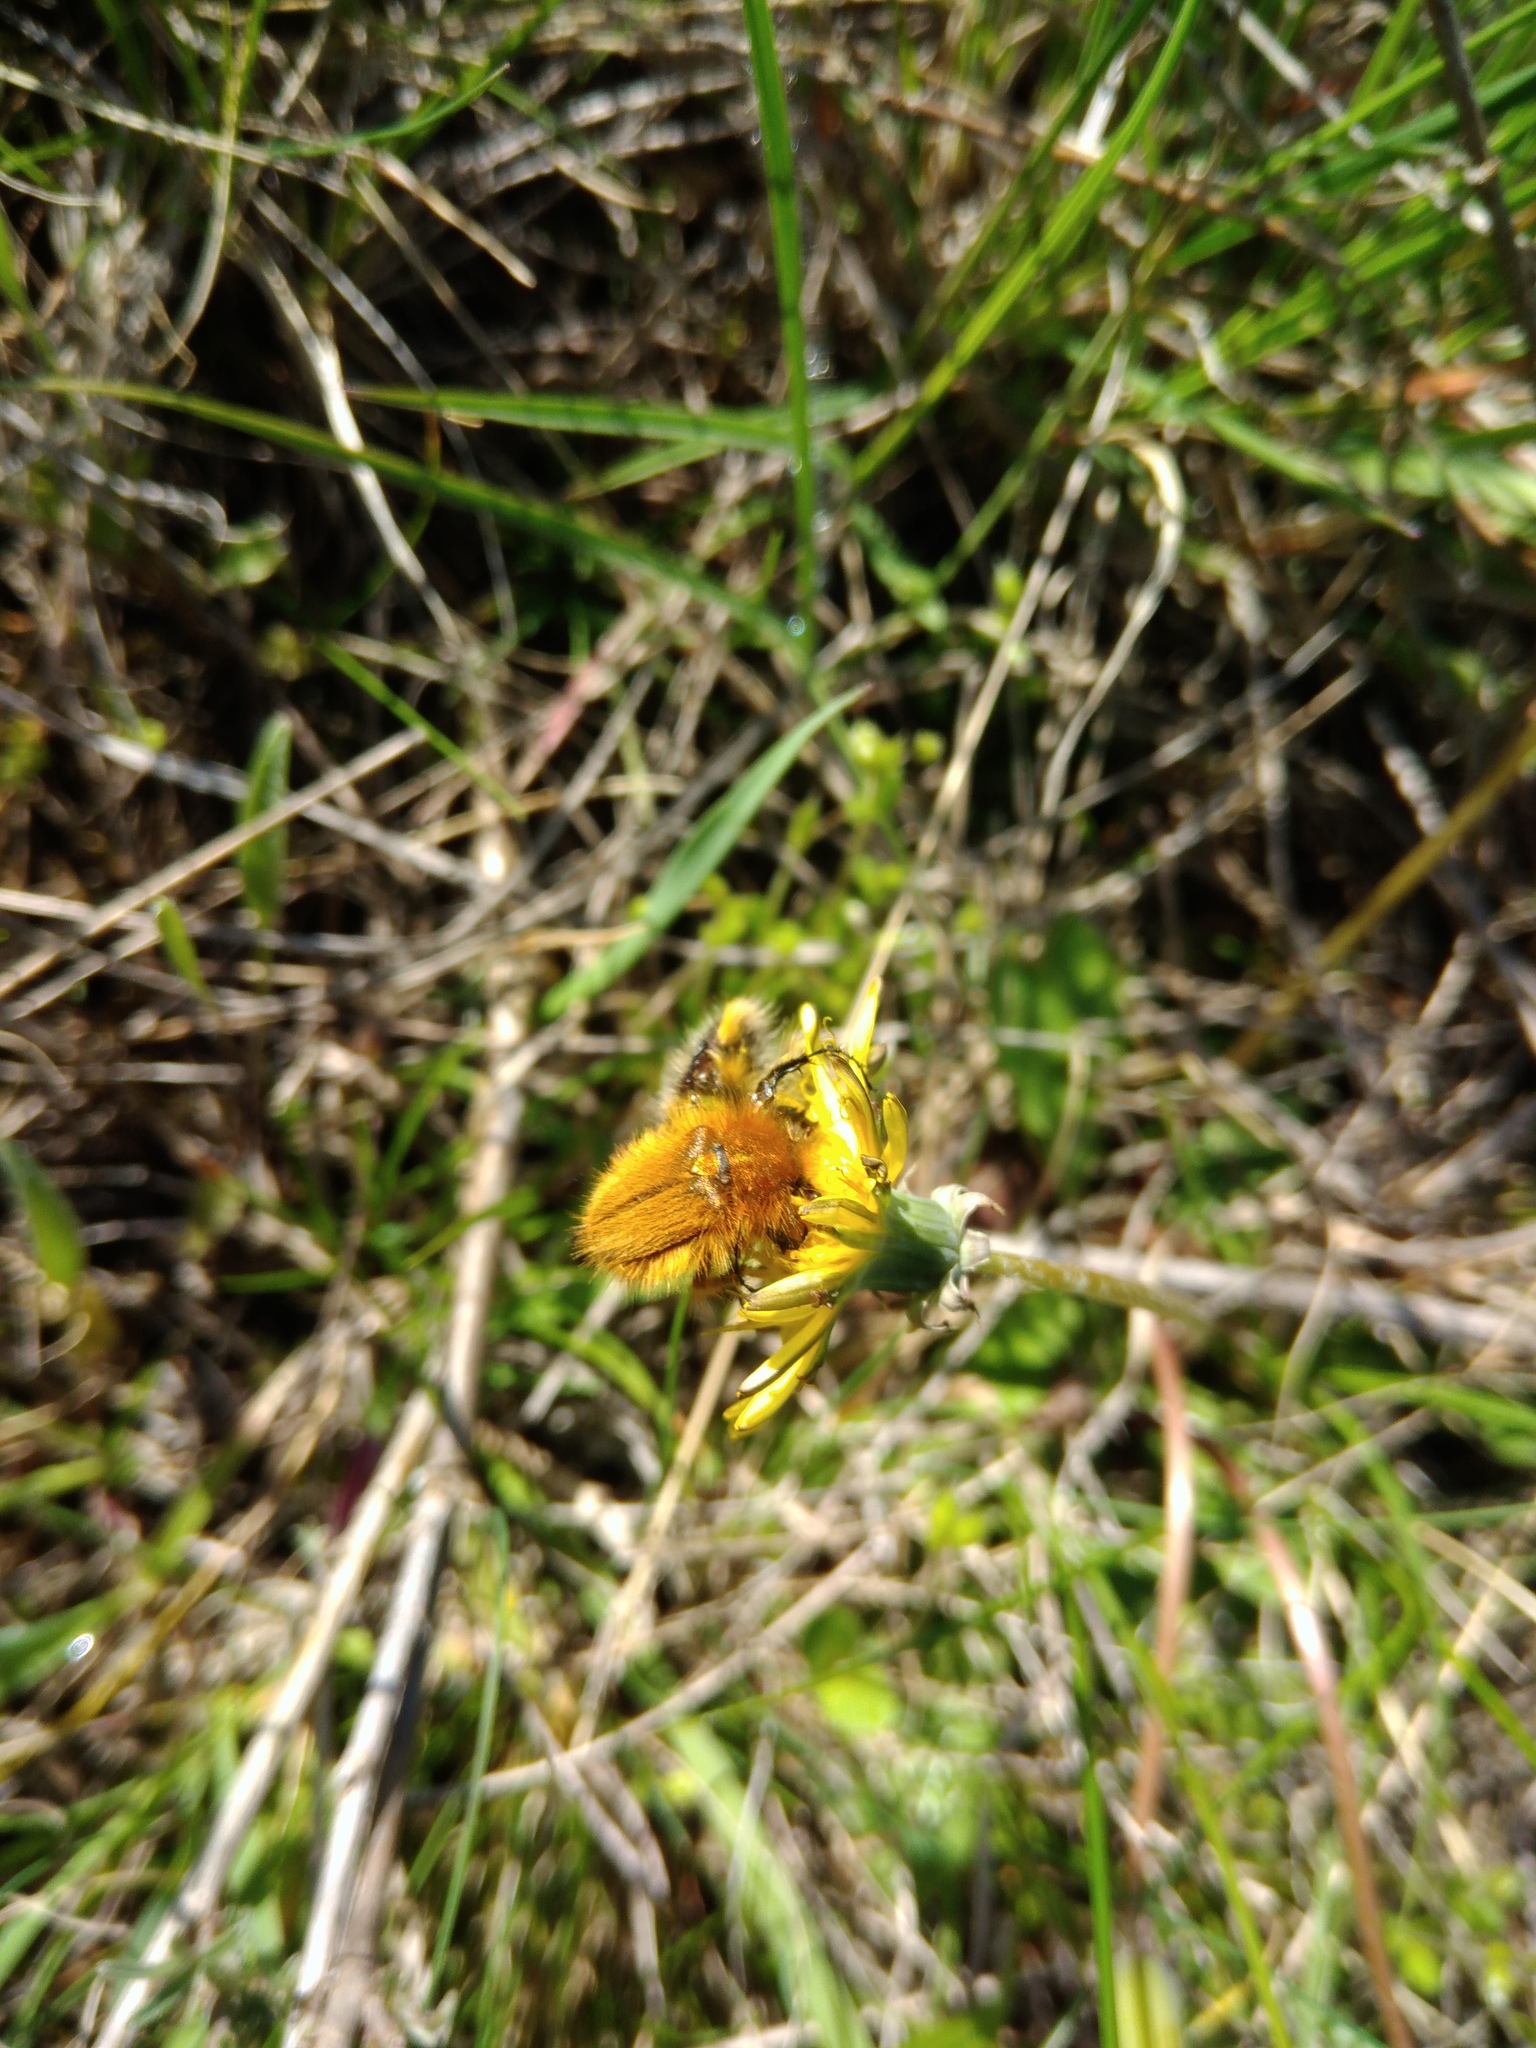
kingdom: Animalia
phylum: Arthropoda
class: Insecta
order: Coleoptera
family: Glaphyridae
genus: Pygopleurus
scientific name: Pygopleurus vulpes
